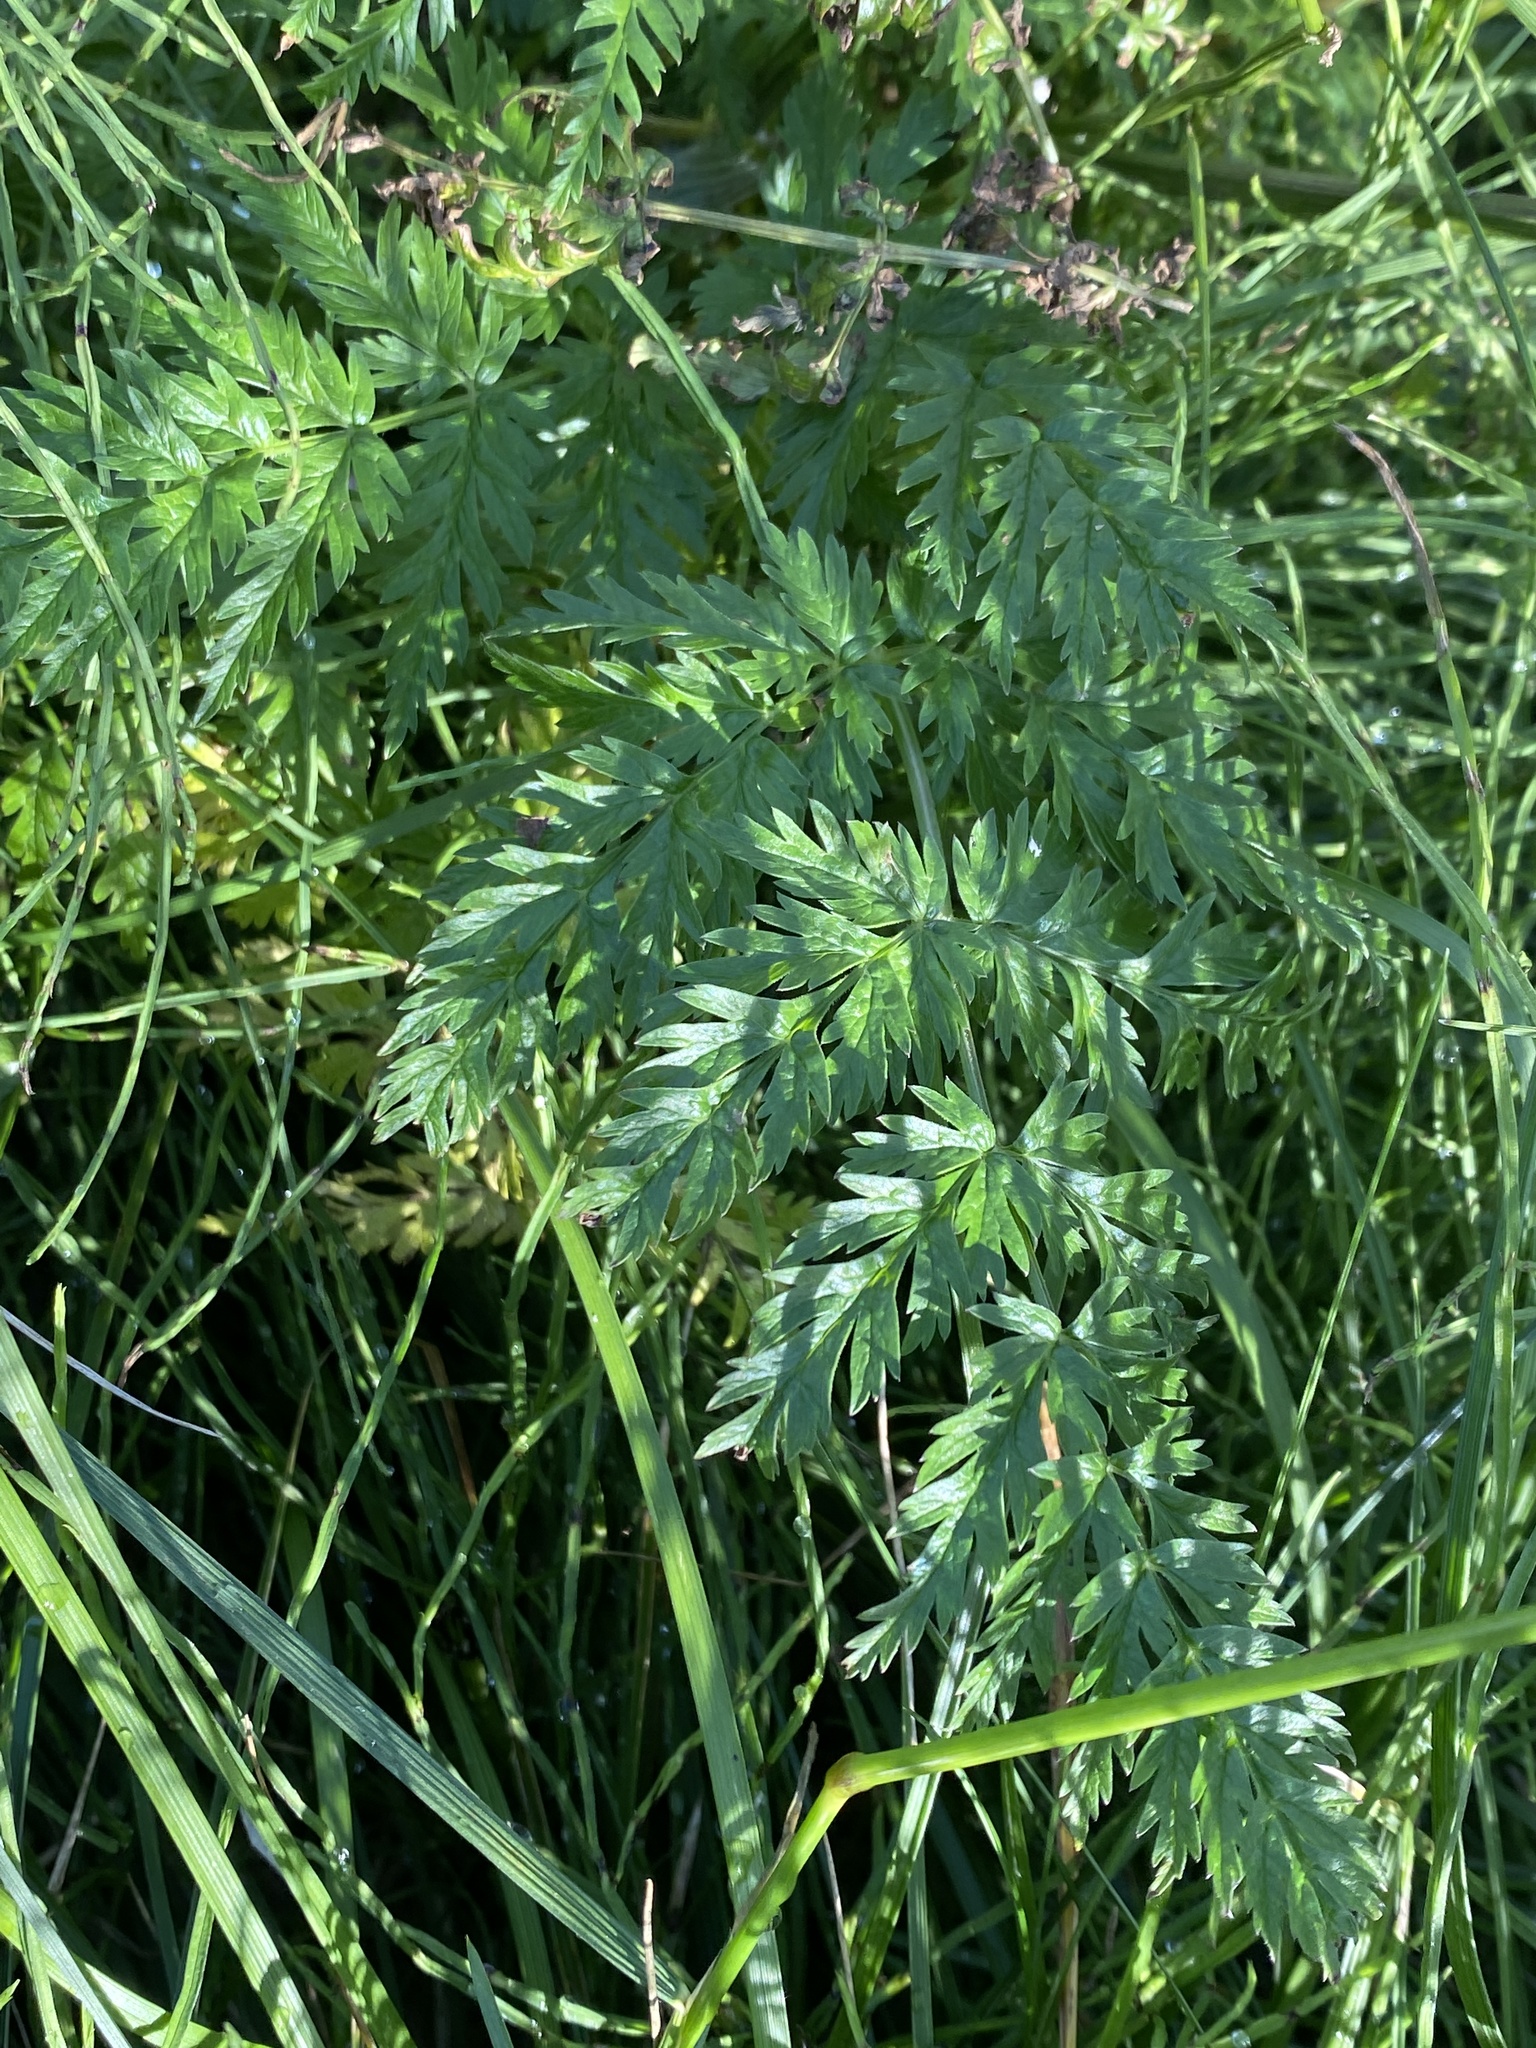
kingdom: Plantae
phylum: Tracheophyta
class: Magnoliopsida
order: Apiales
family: Apiaceae
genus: Anthriscus
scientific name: Anthriscus sylvestris
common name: Cow parsley
